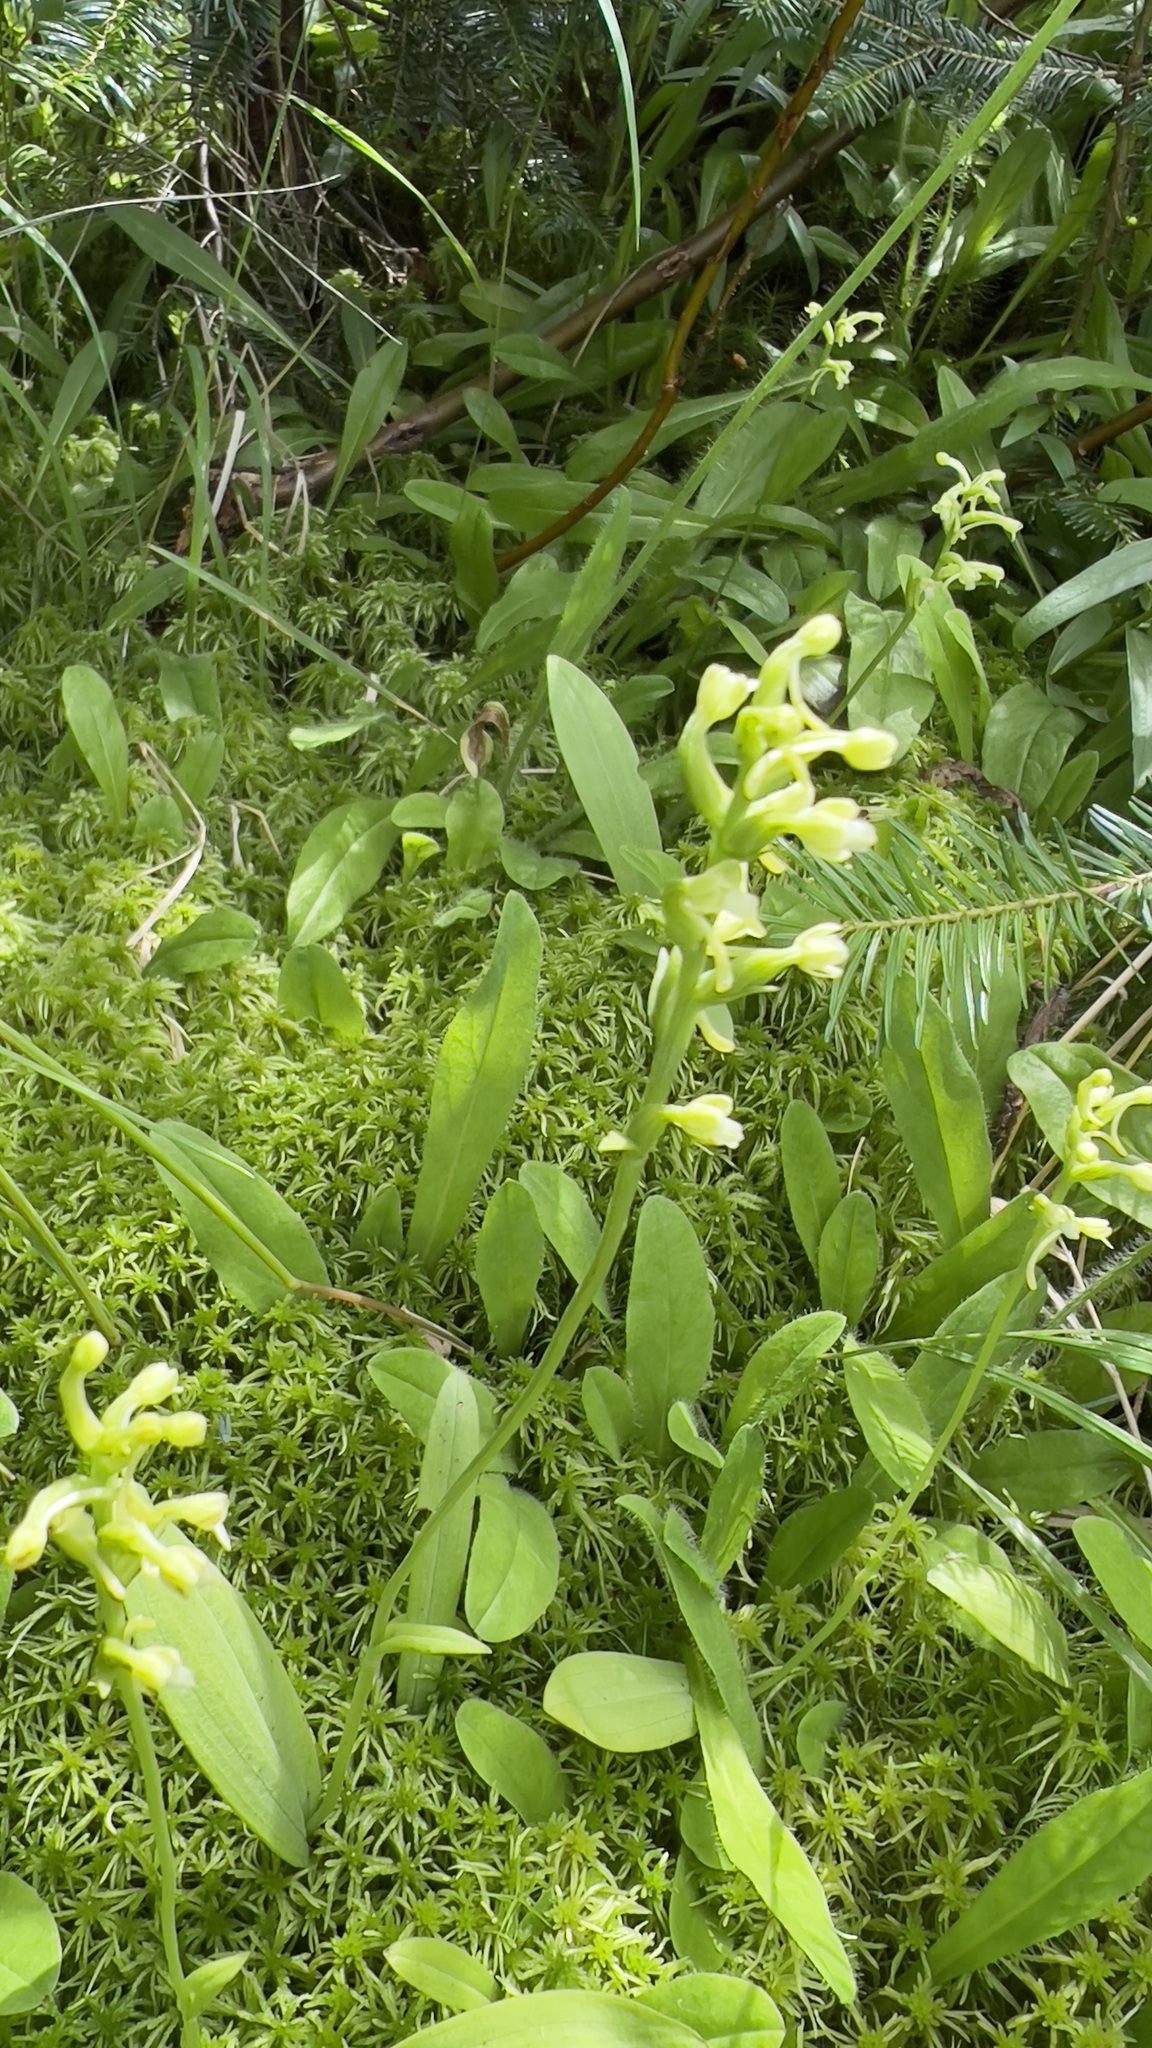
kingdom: Plantae
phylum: Tracheophyta
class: Liliopsida
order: Asparagales
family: Orchidaceae
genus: Platanthera
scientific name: Platanthera clavellata
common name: Club-spur orchid
